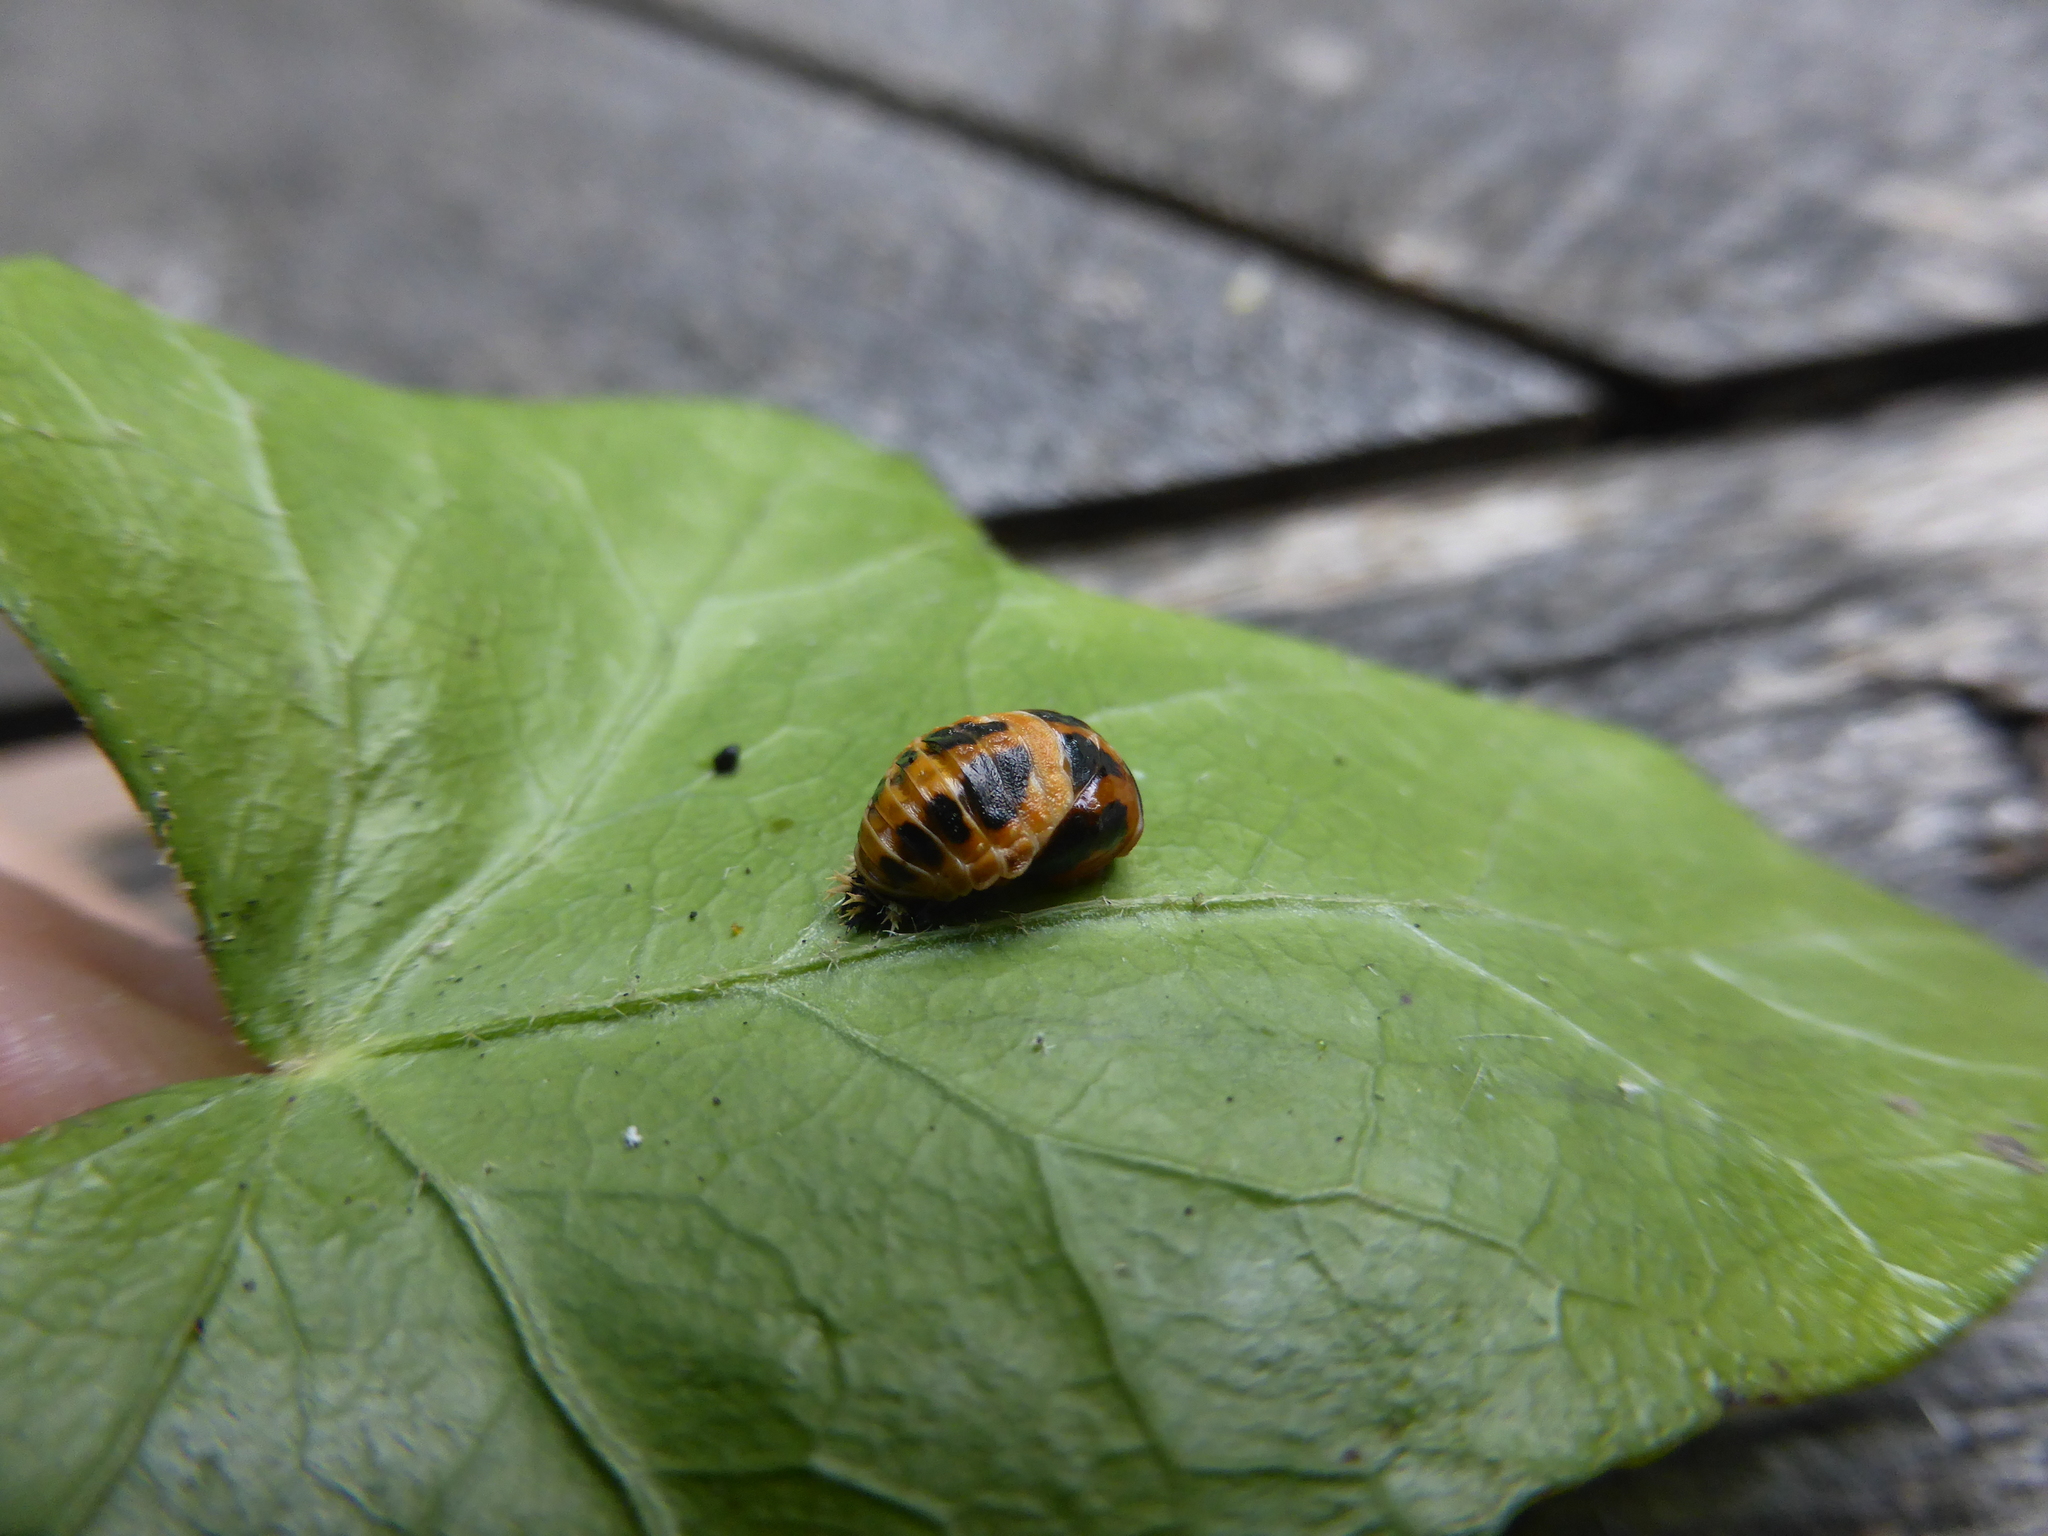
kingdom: Animalia
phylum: Arthropoda
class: Insecta
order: Coleoptera
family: Coccinellidae
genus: Harmonia
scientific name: Harmonia axyridis
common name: Harlequin ladybird
